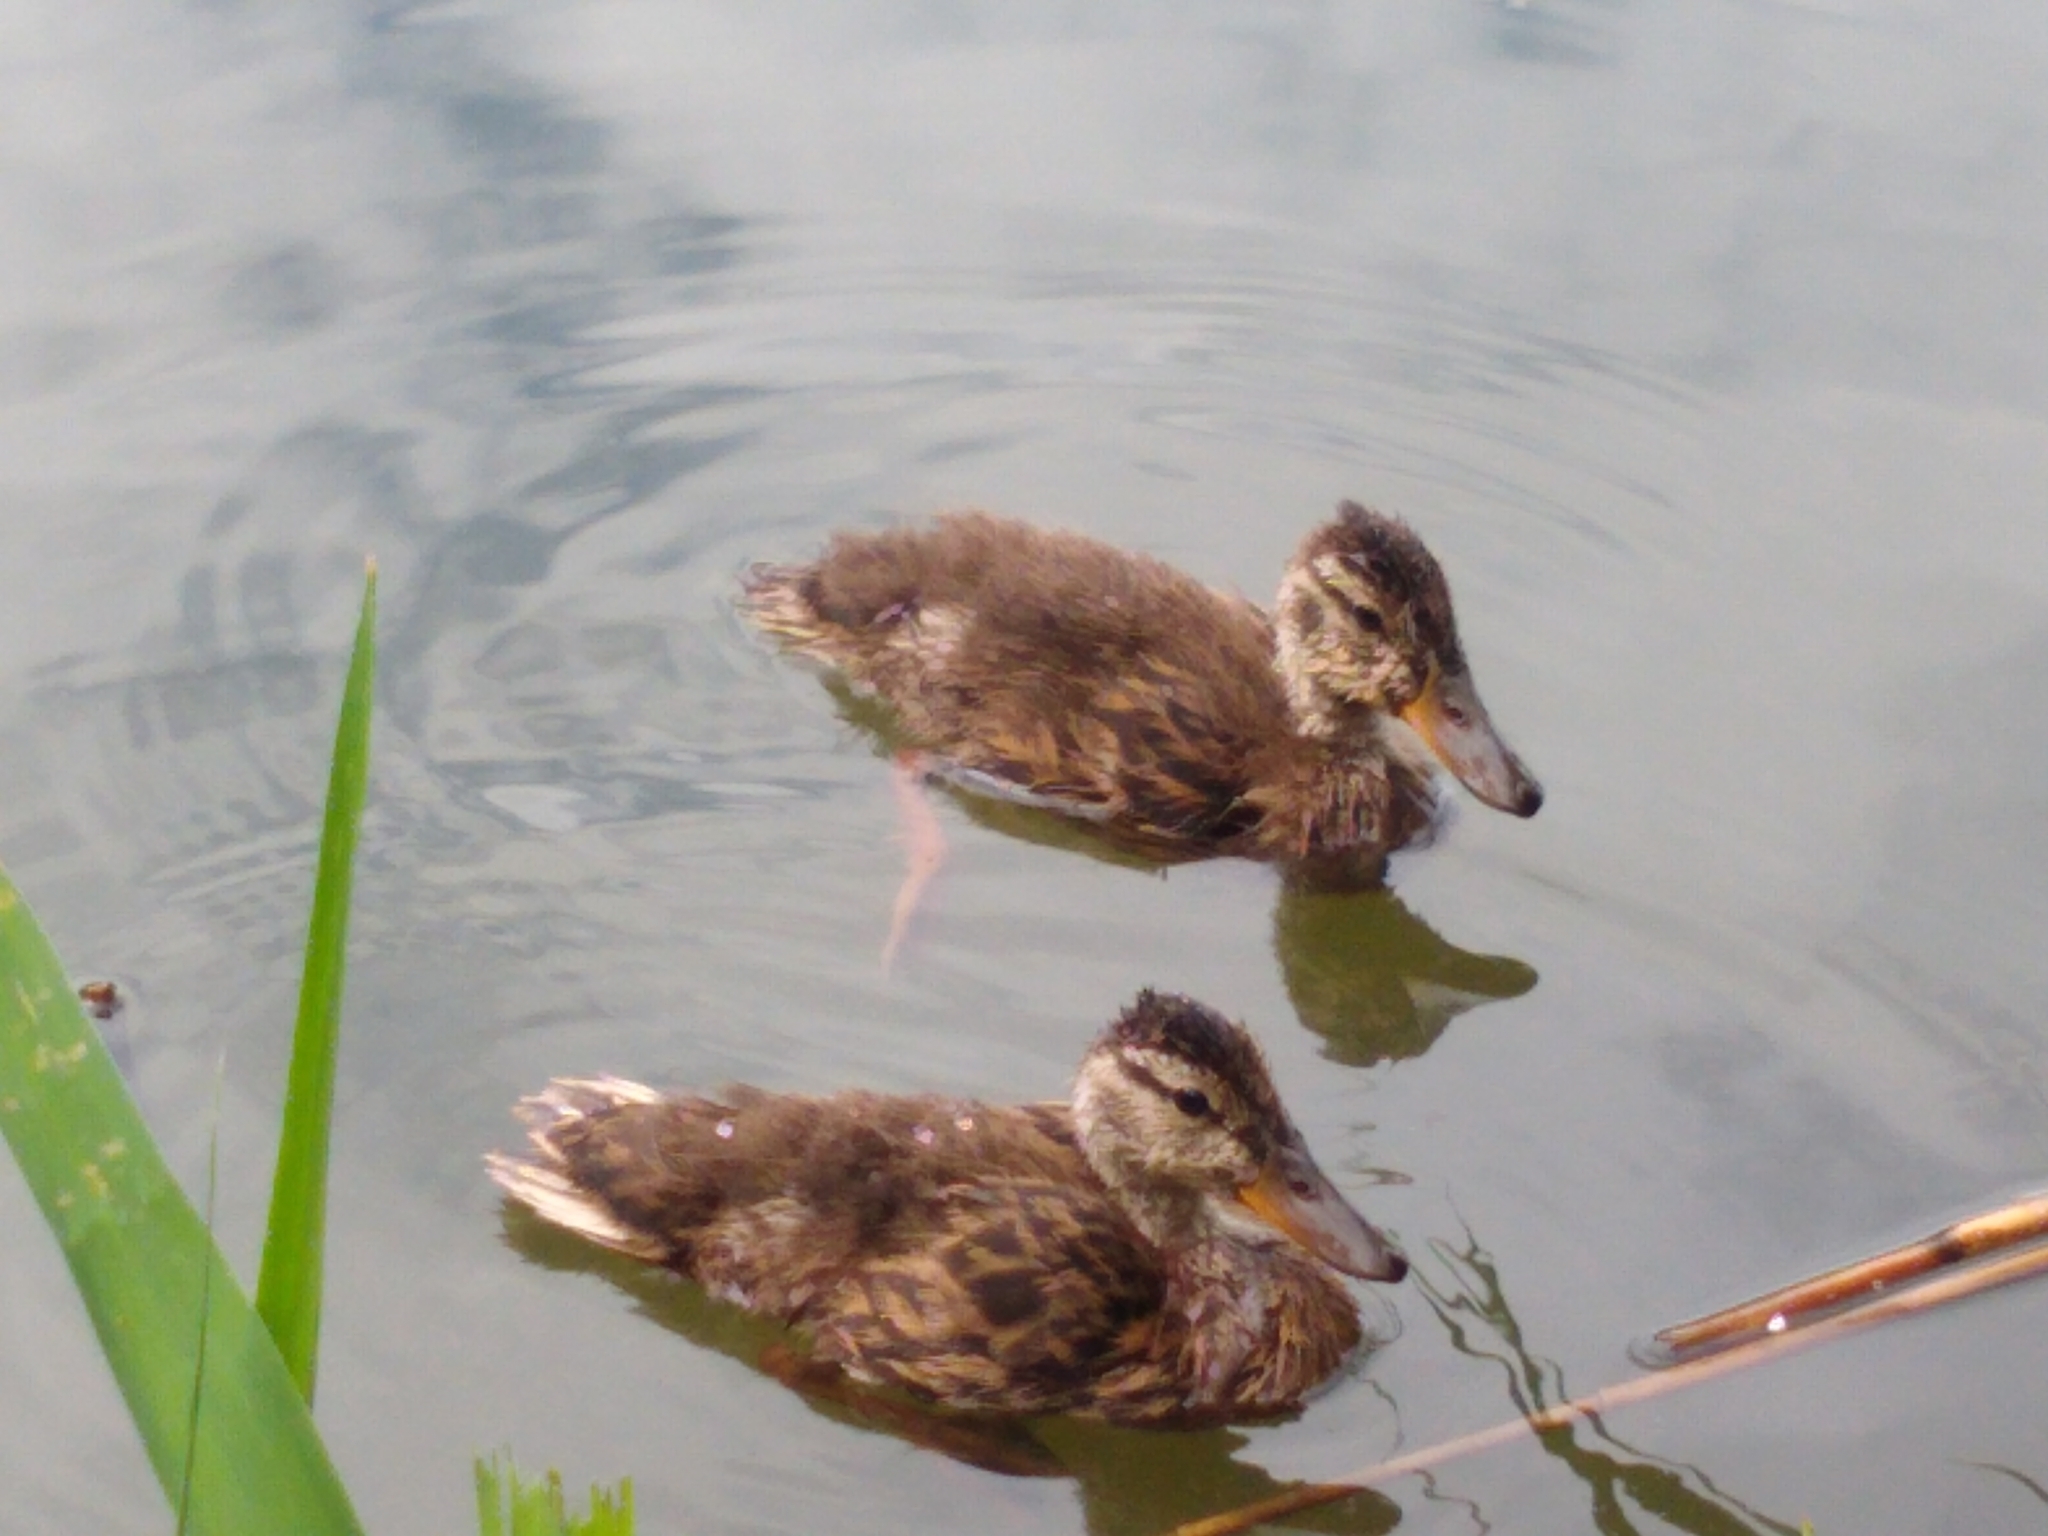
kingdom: Animalia
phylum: Chordata
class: Aves
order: Anseriformes
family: Anatidae
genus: Anas
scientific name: Anas platyrhynchos
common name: Mallard
